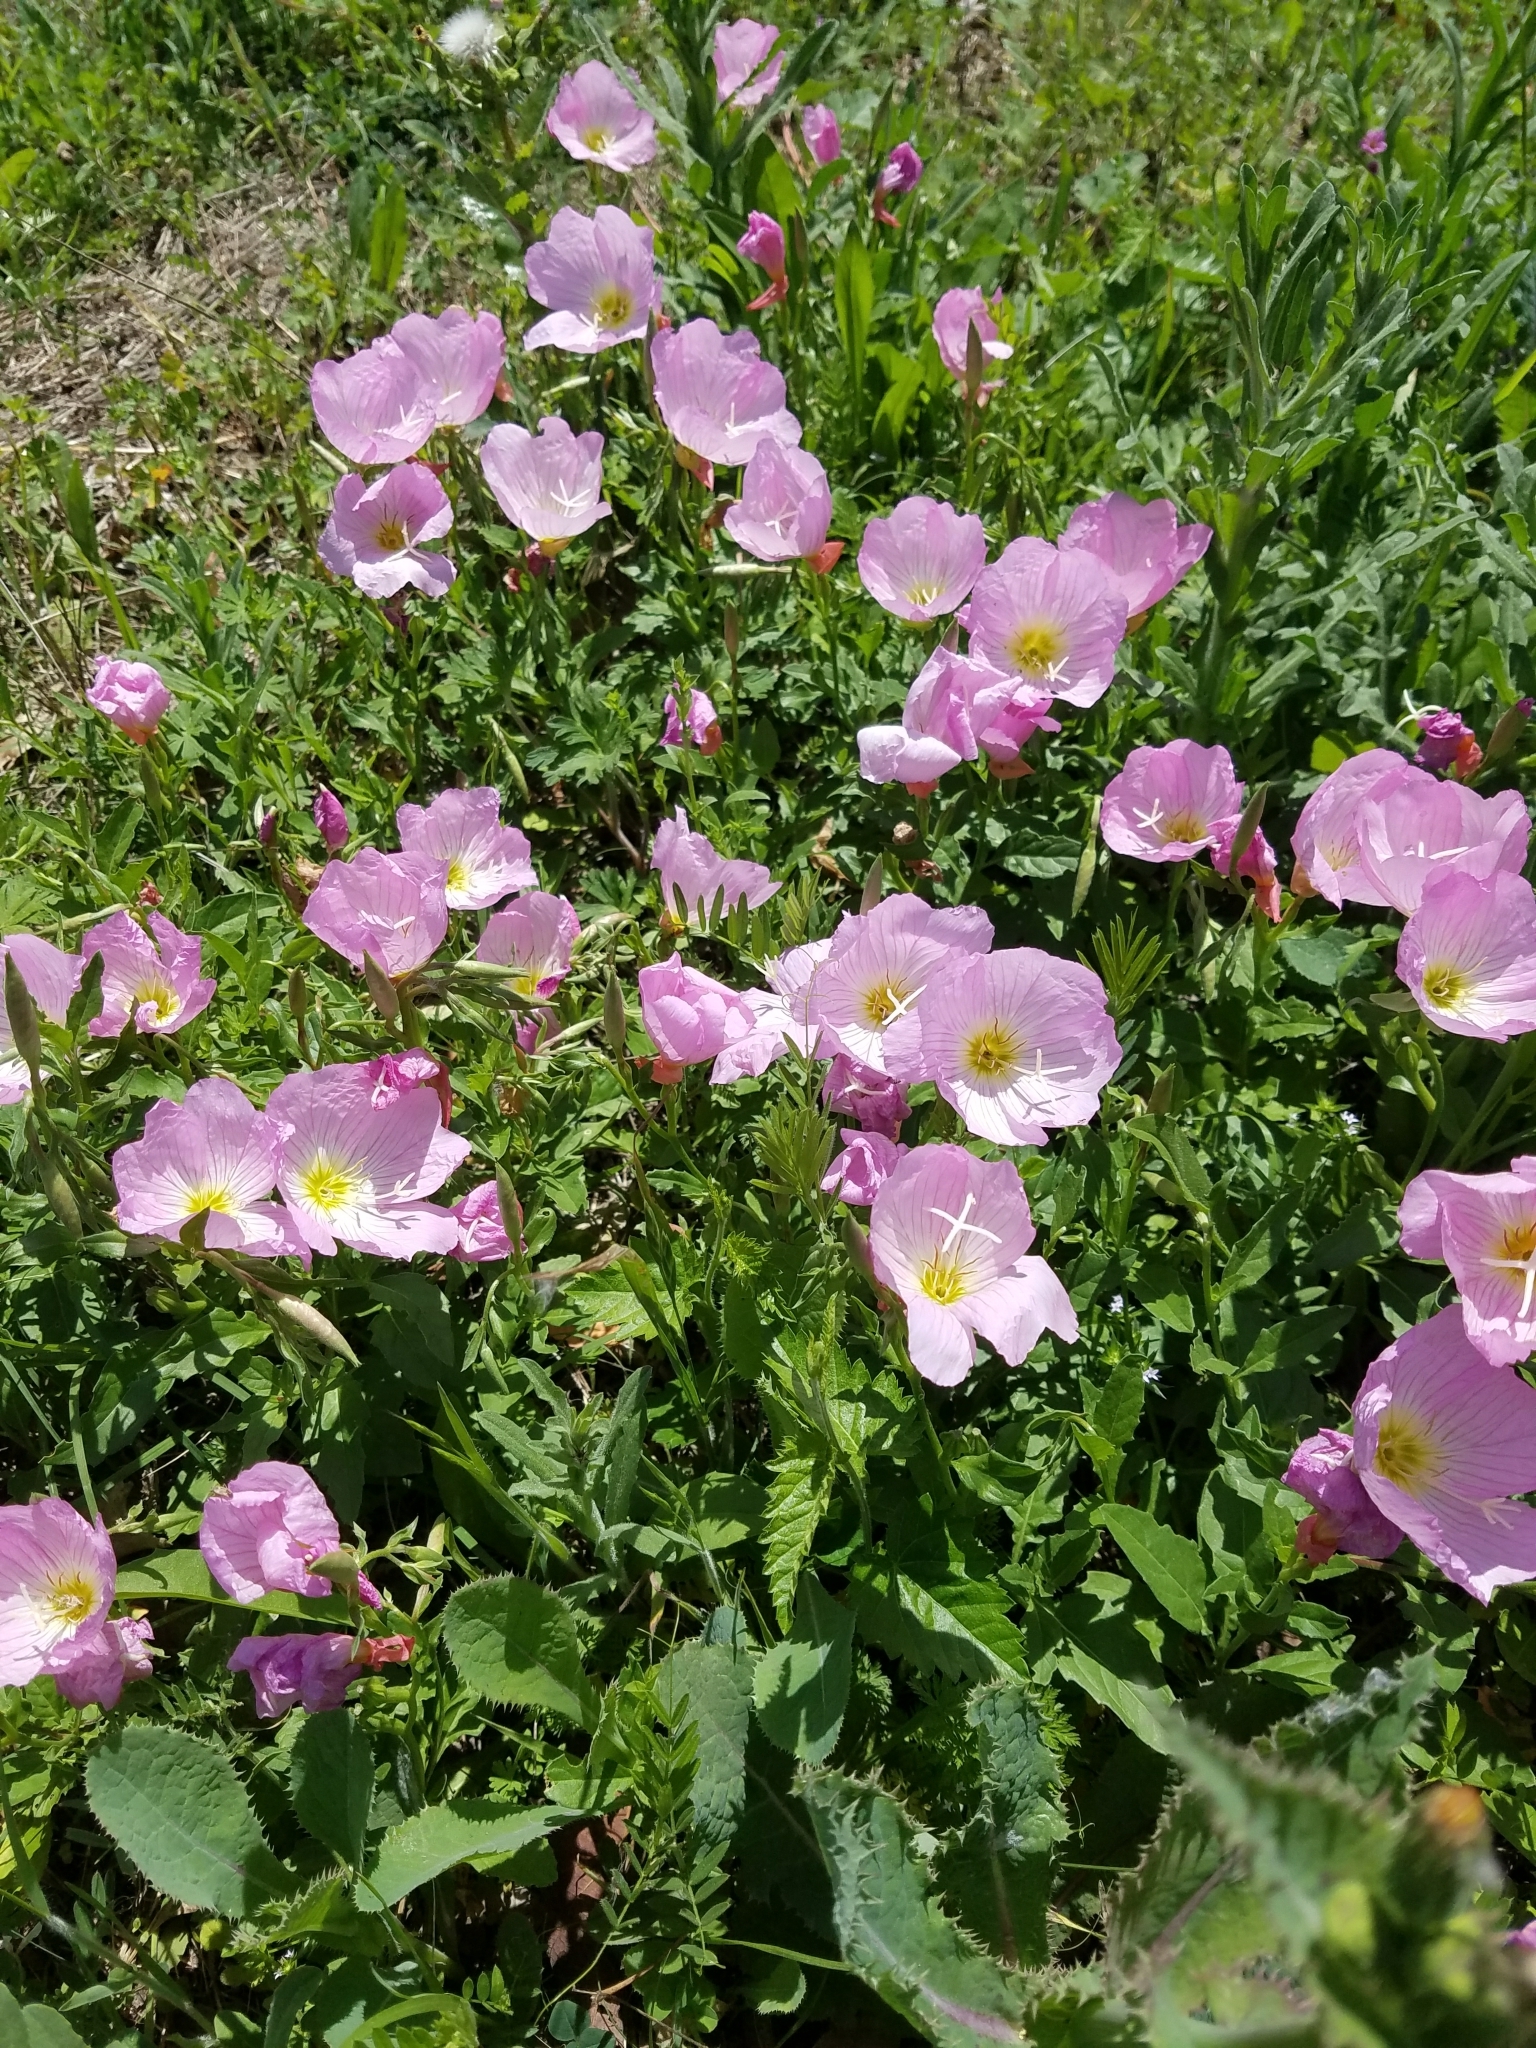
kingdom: Plantae
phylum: Tracheophyta
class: Magnoliopsida
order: Myrtales
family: Onagraceae
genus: Oenothera
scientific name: Oenothera speciosa
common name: White evening-primrose
